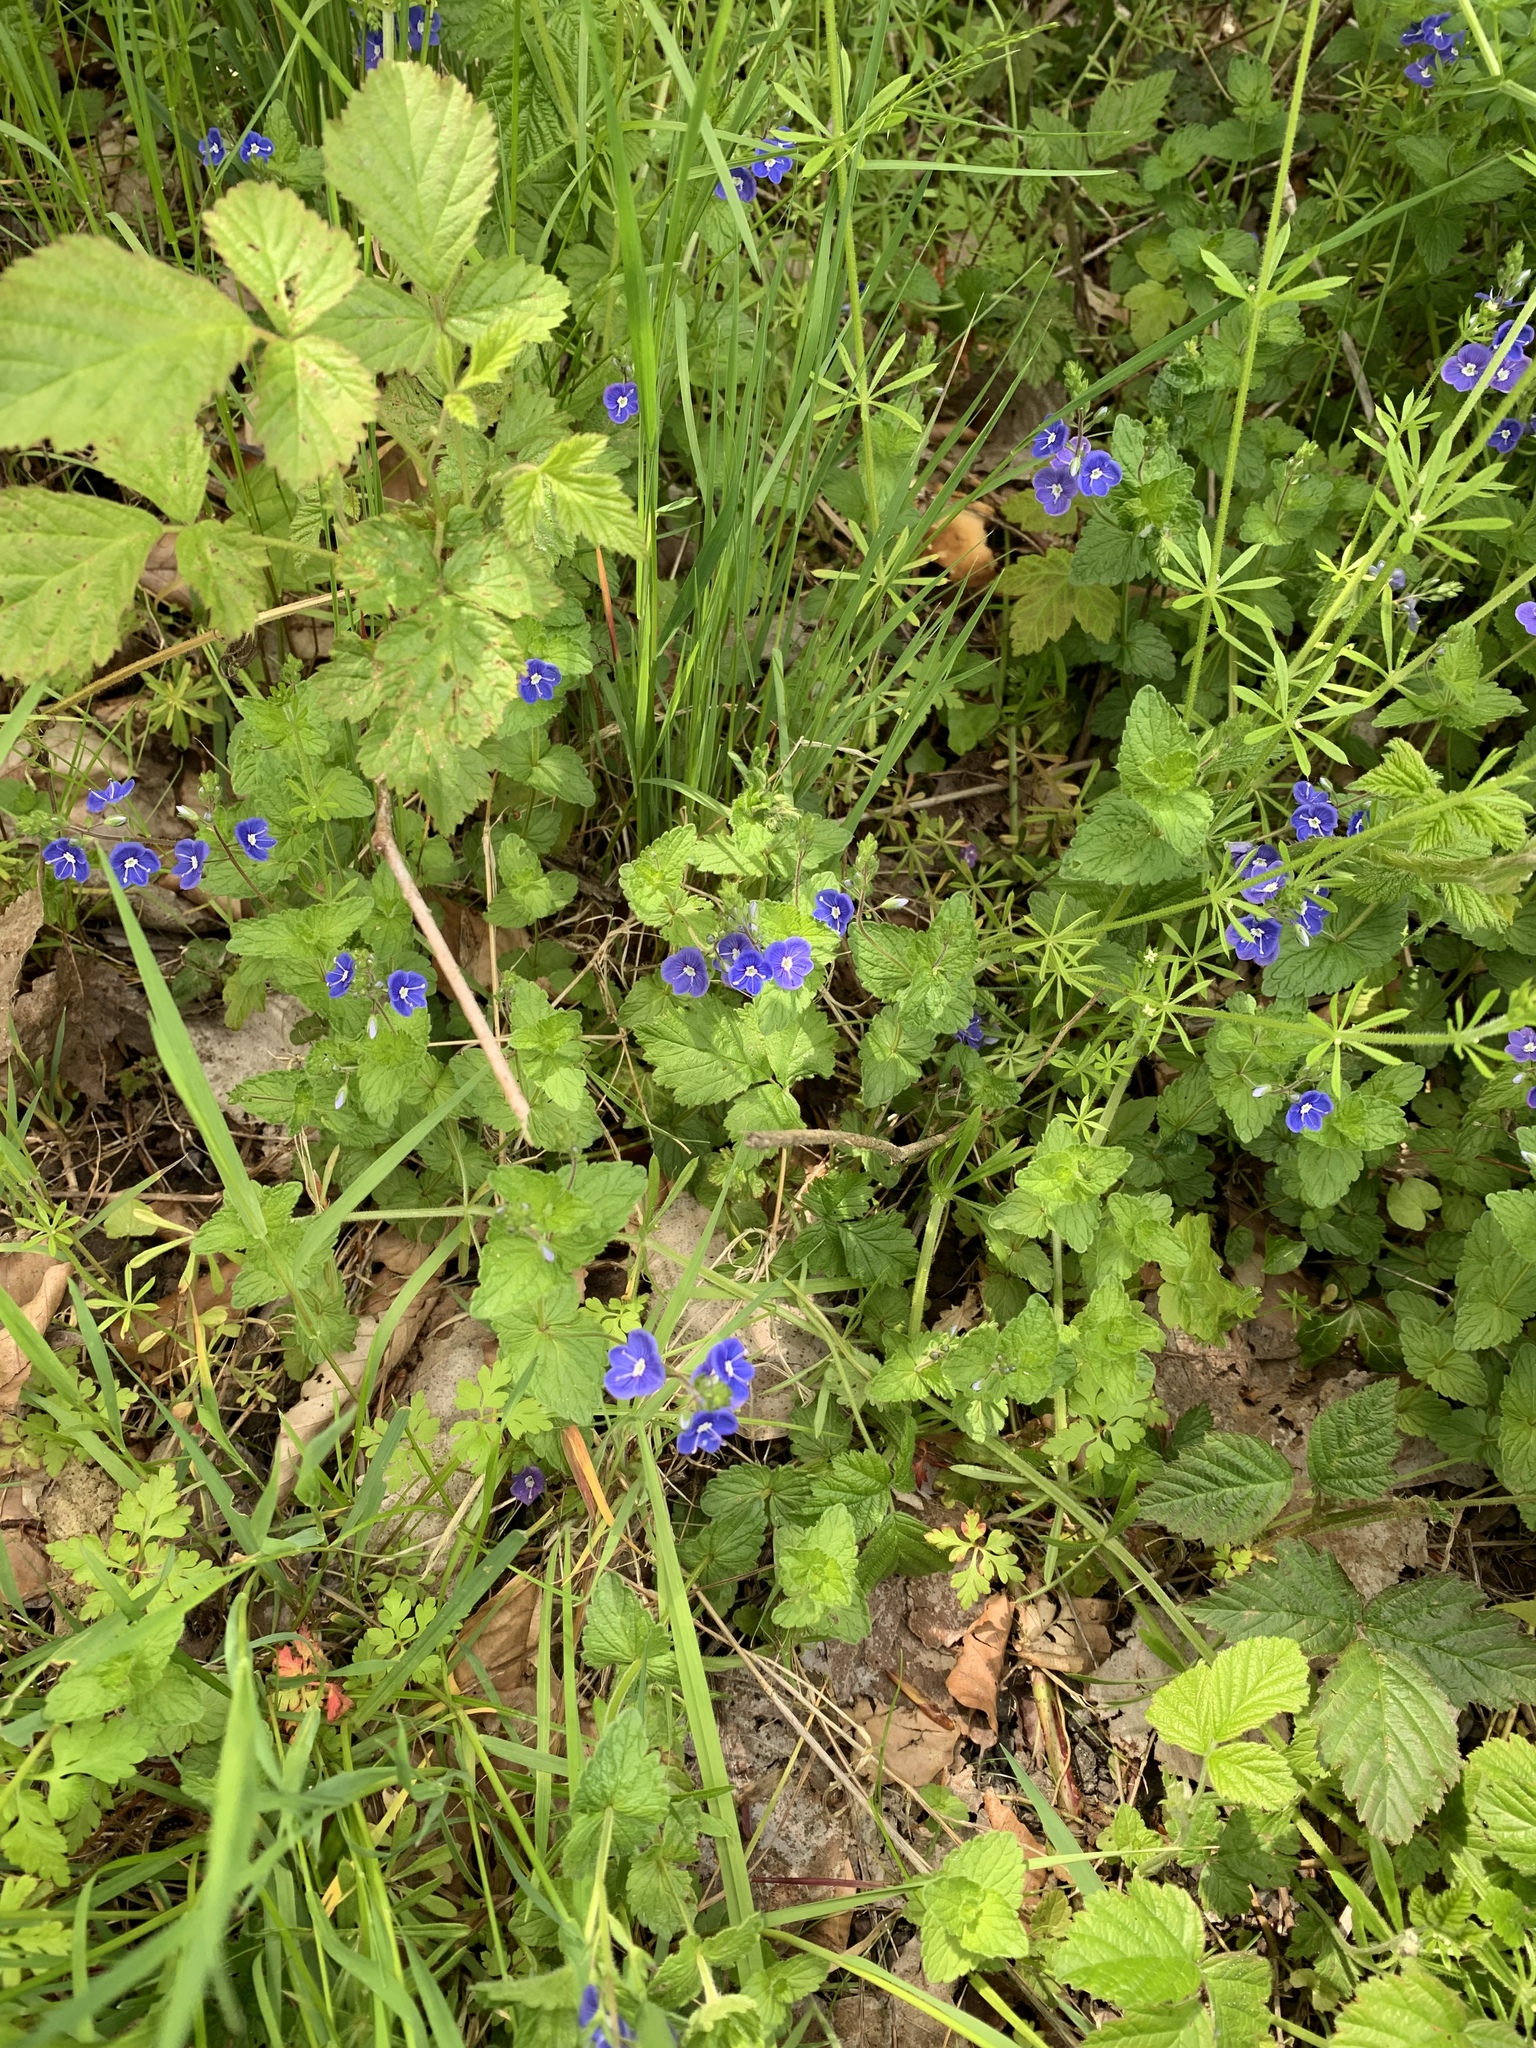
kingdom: Plantae
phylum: Tracheophyta
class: Magnoliopsida
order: Lamiales
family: Plantaginaceae
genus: Veronica
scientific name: Veronica chamaedrys
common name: Germander speedwell
